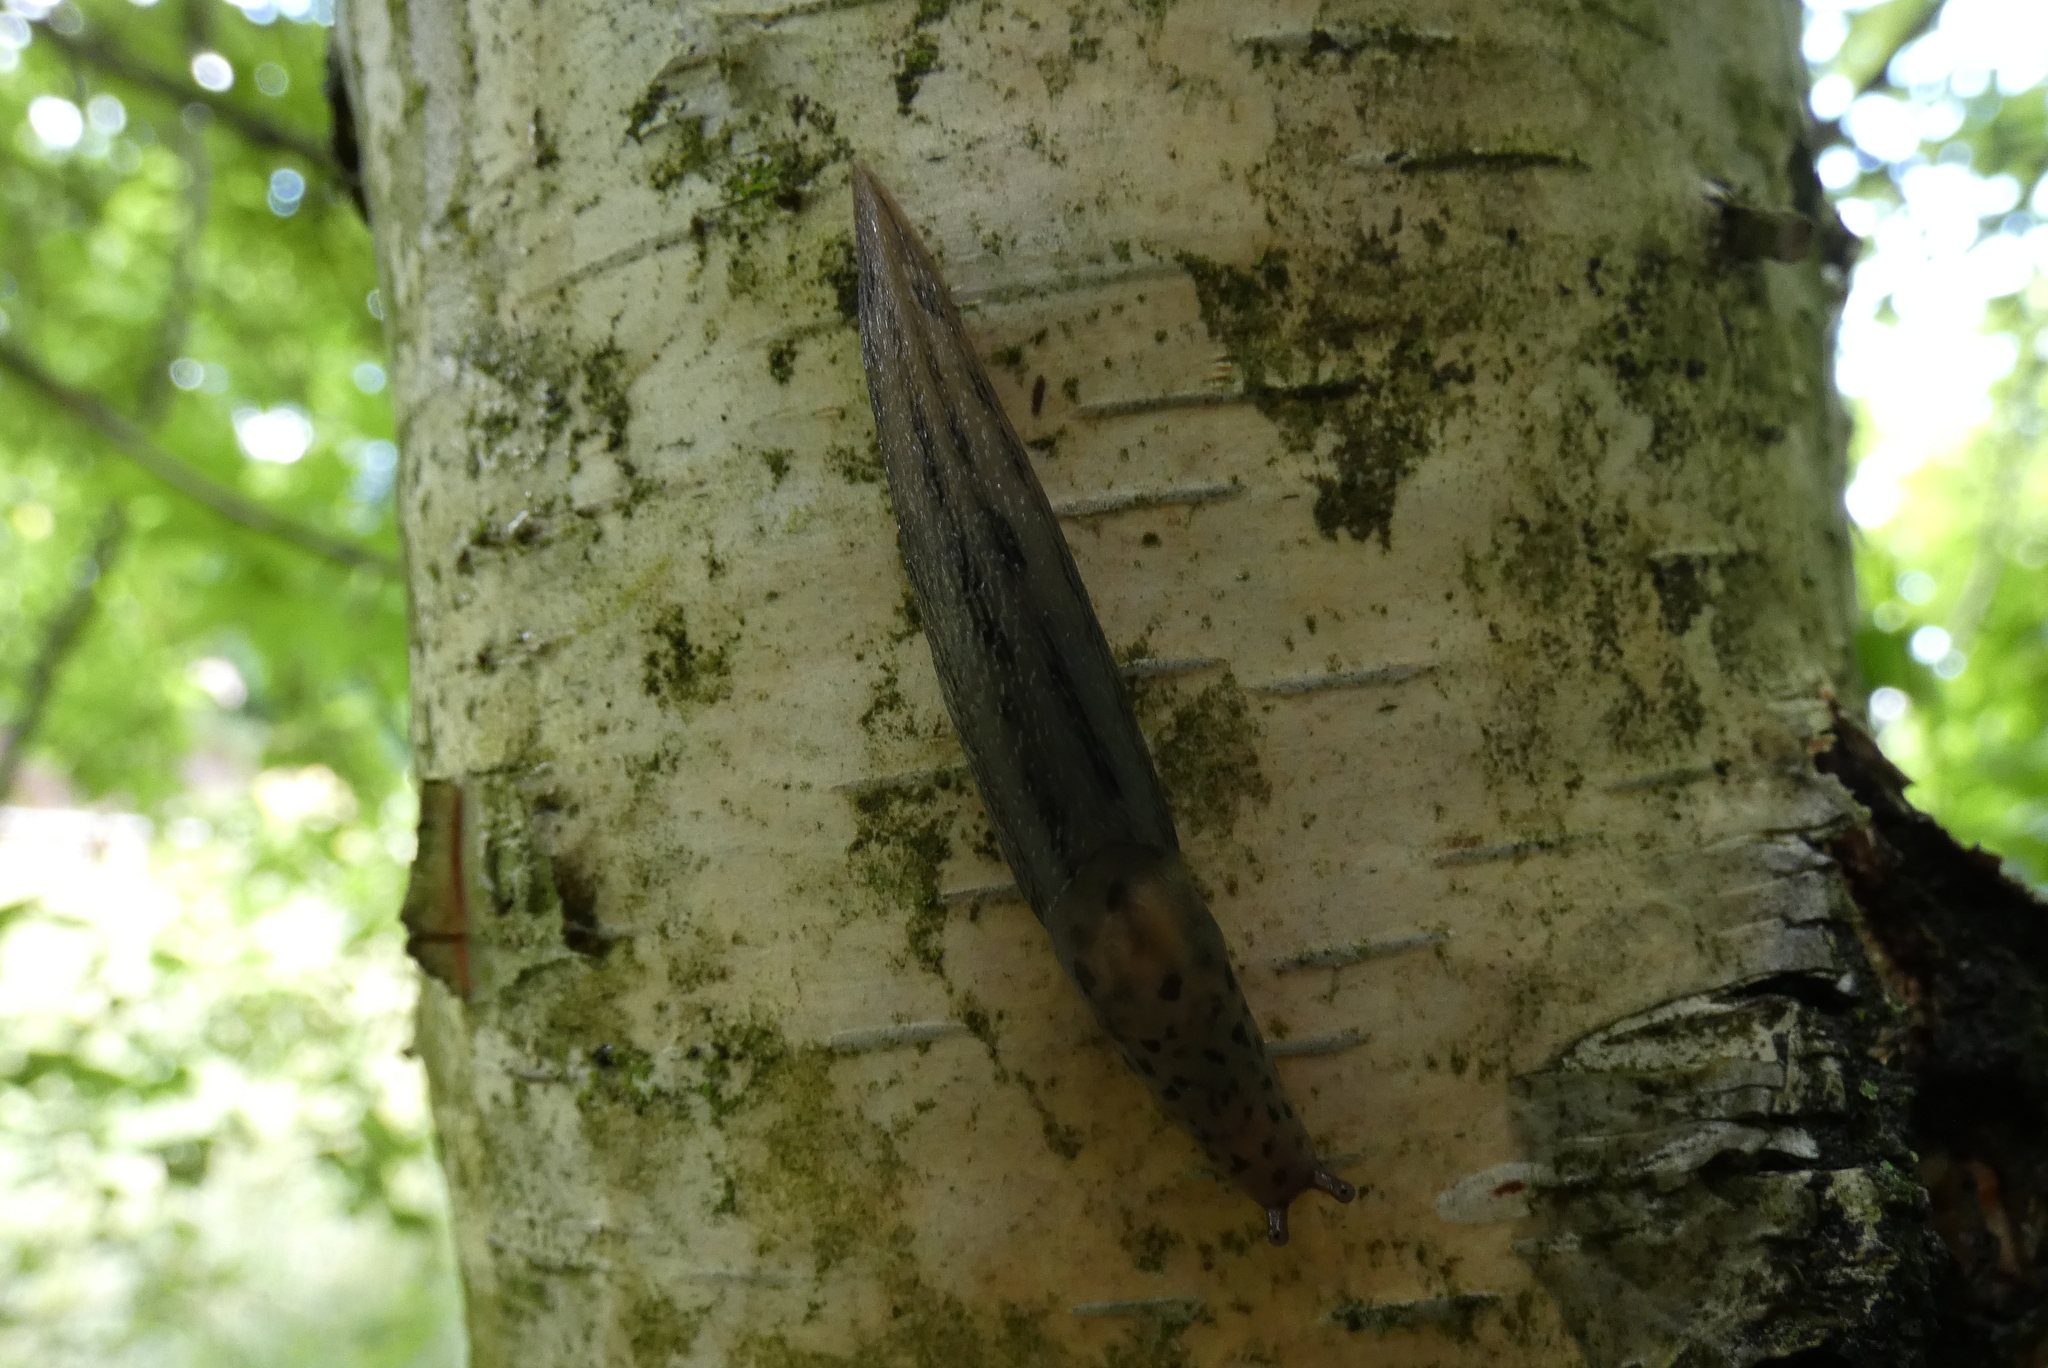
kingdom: Animalia
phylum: Mollusca
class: Gastropoda
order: Stylommatophora
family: Limacidae
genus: Limax
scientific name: Limax maximus
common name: Great grey slug
